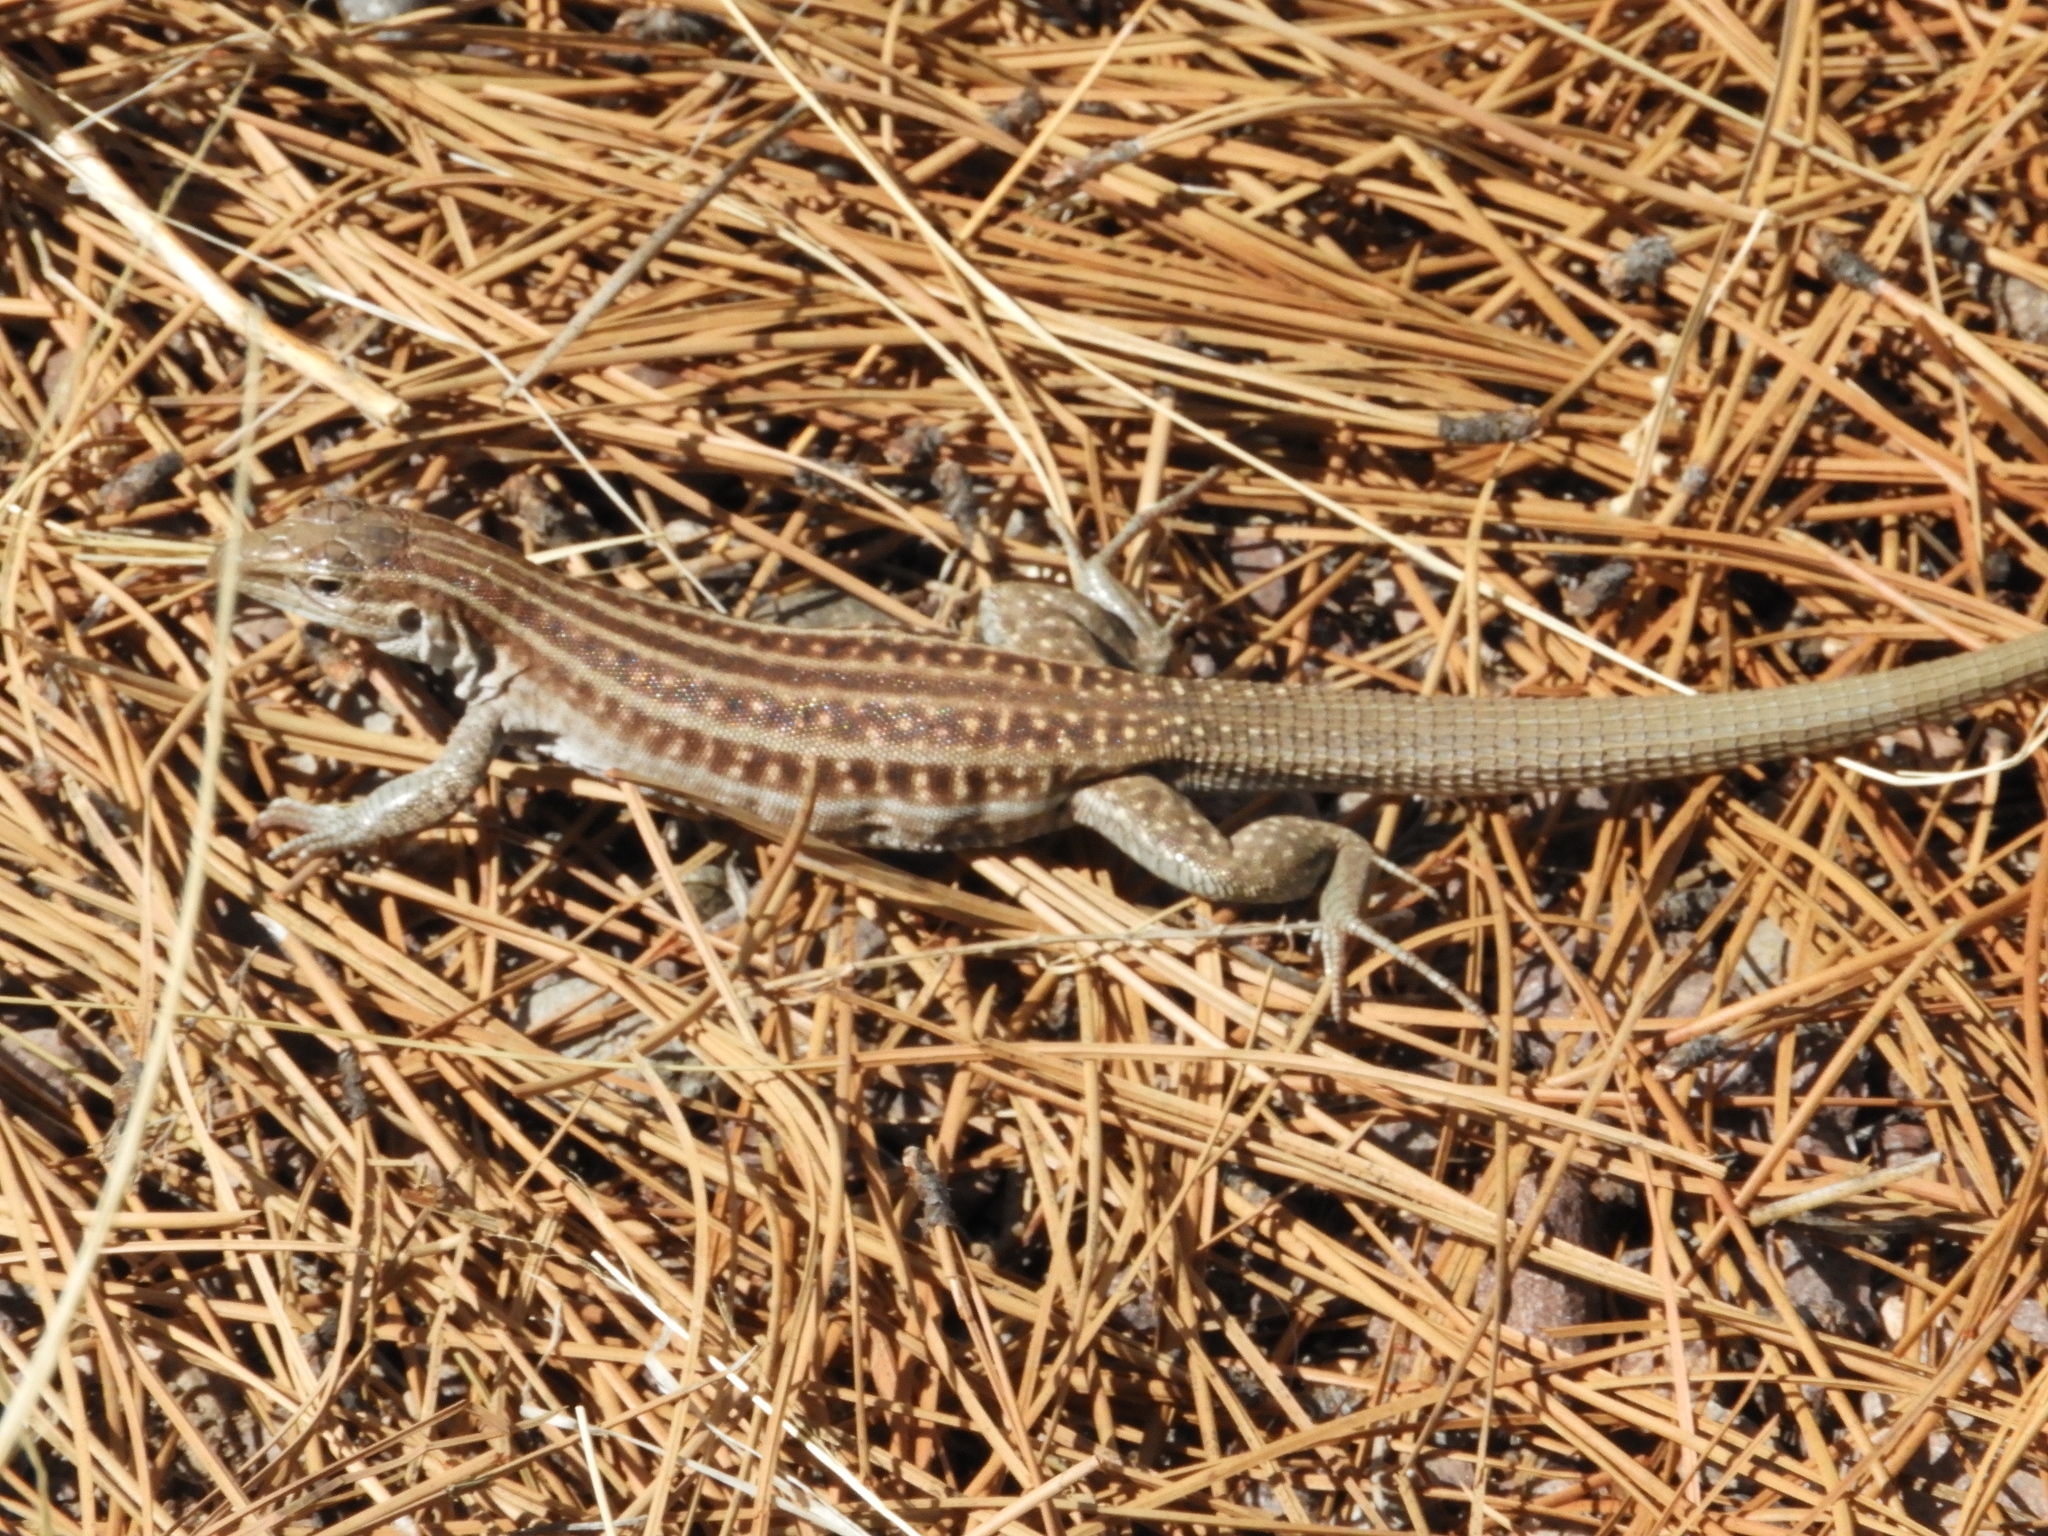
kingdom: Animalia
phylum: Chordata
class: Squamata
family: Teiidae
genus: Aspidoscelis
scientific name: Aspidoscelis exsanguis
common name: Chihuahuan spotted whiptail
